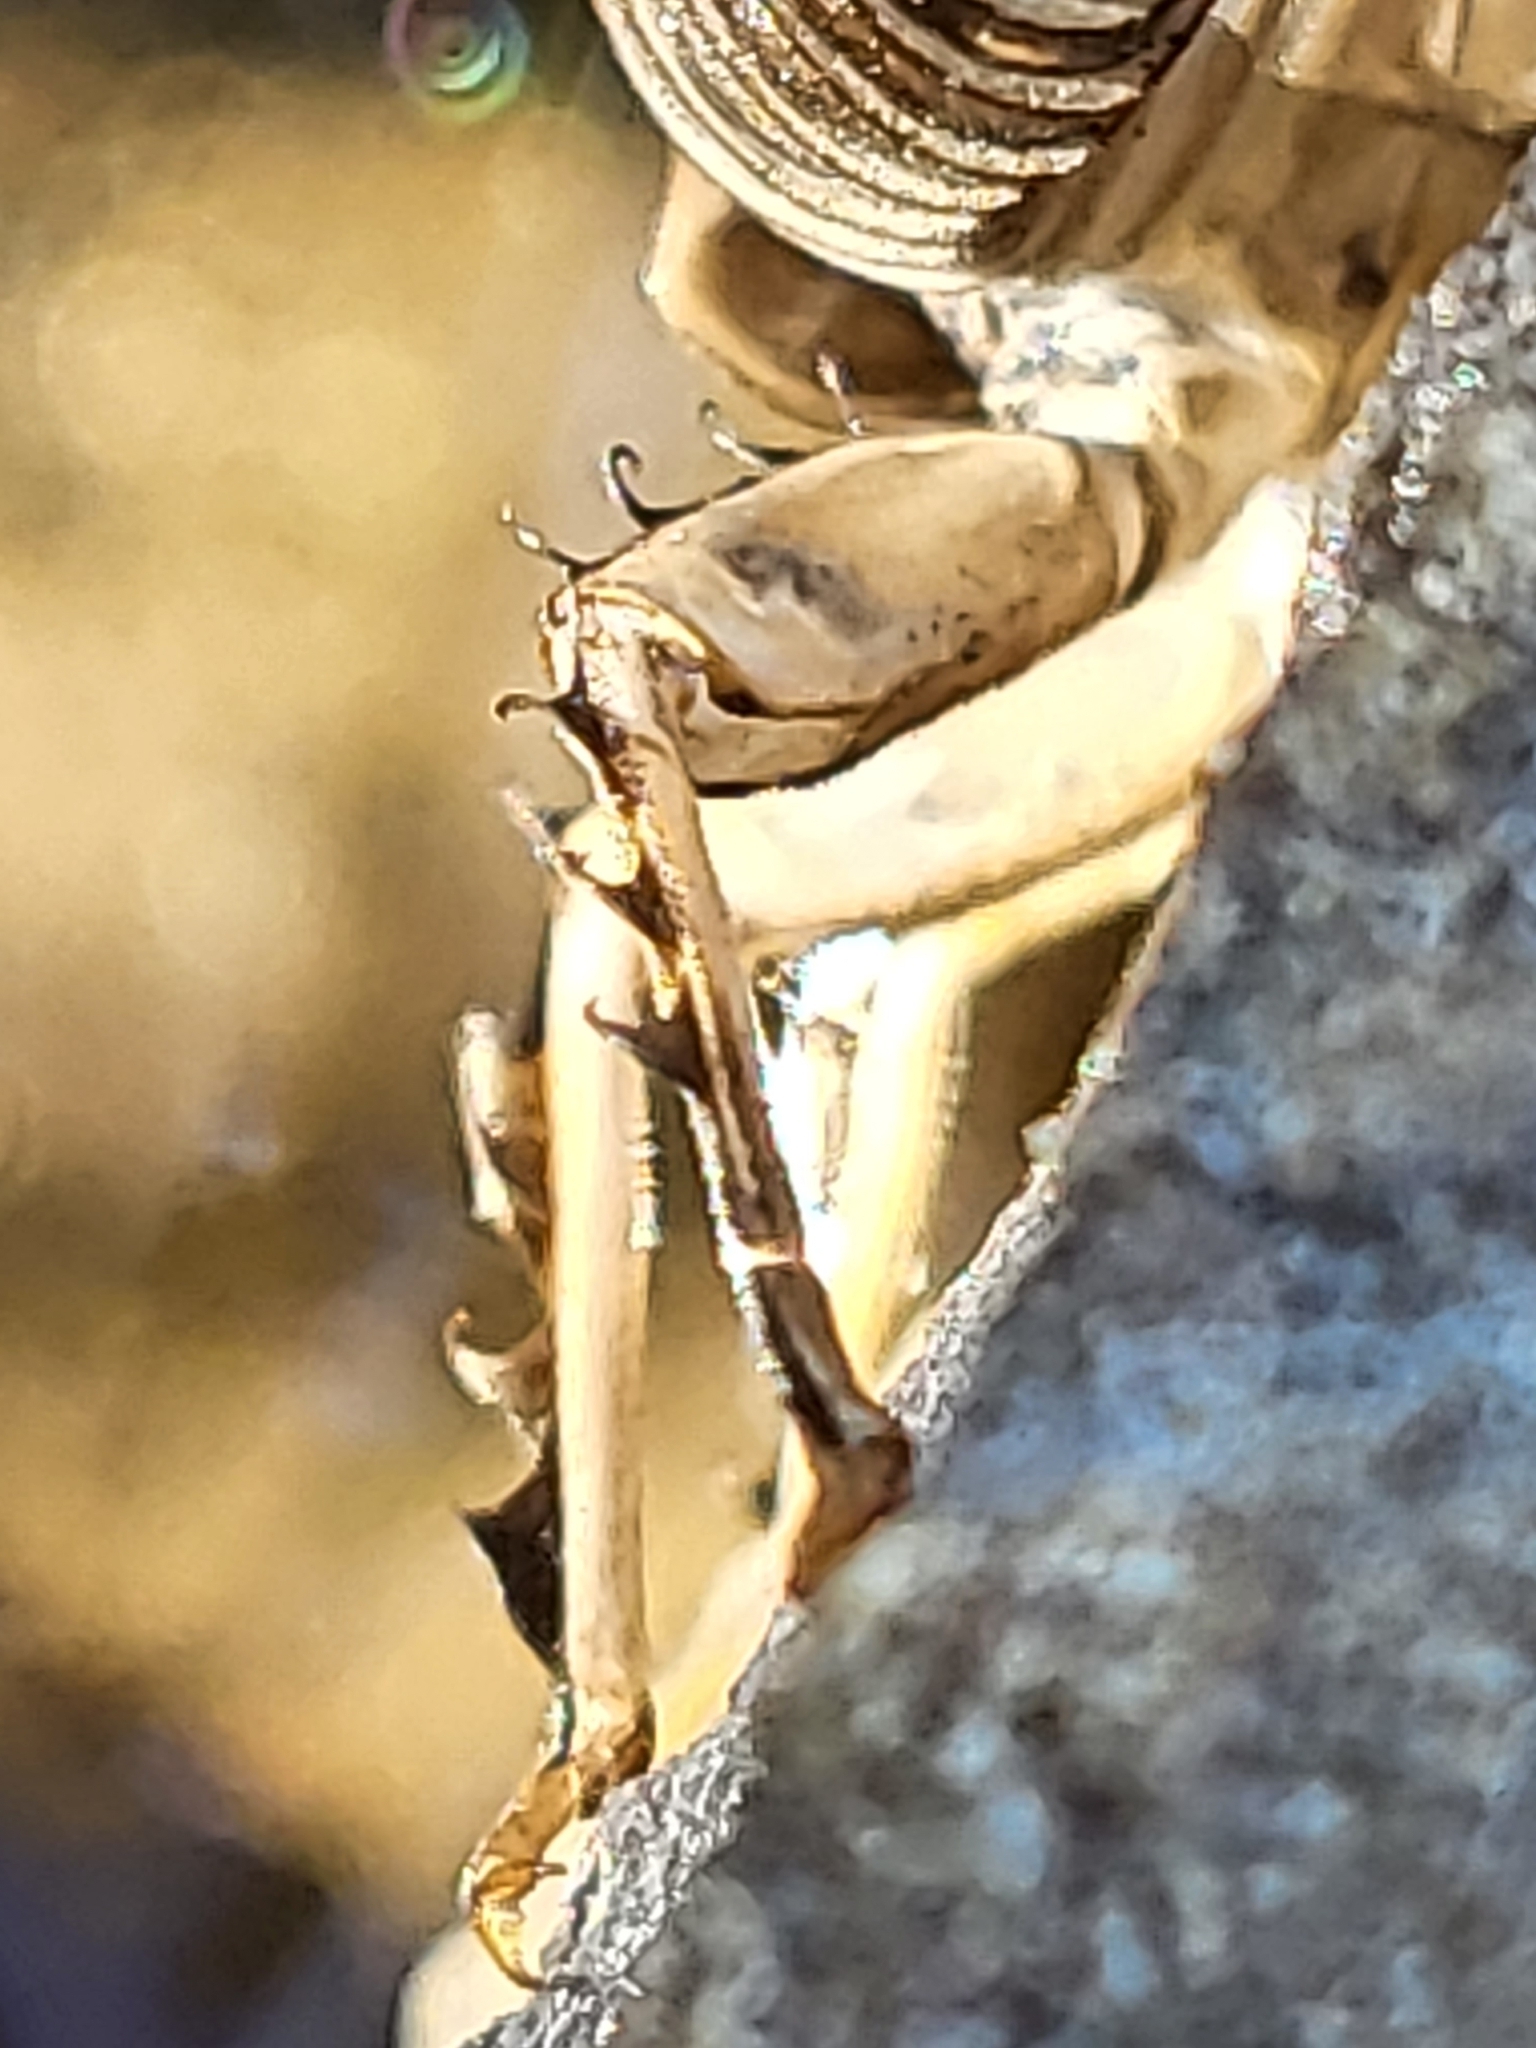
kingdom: Animalia
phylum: Arthropoda
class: Insecta
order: Plecoptera
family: Perlidae
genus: Claassenia
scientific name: Claassenia sabulosa
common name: Shortwing stone
